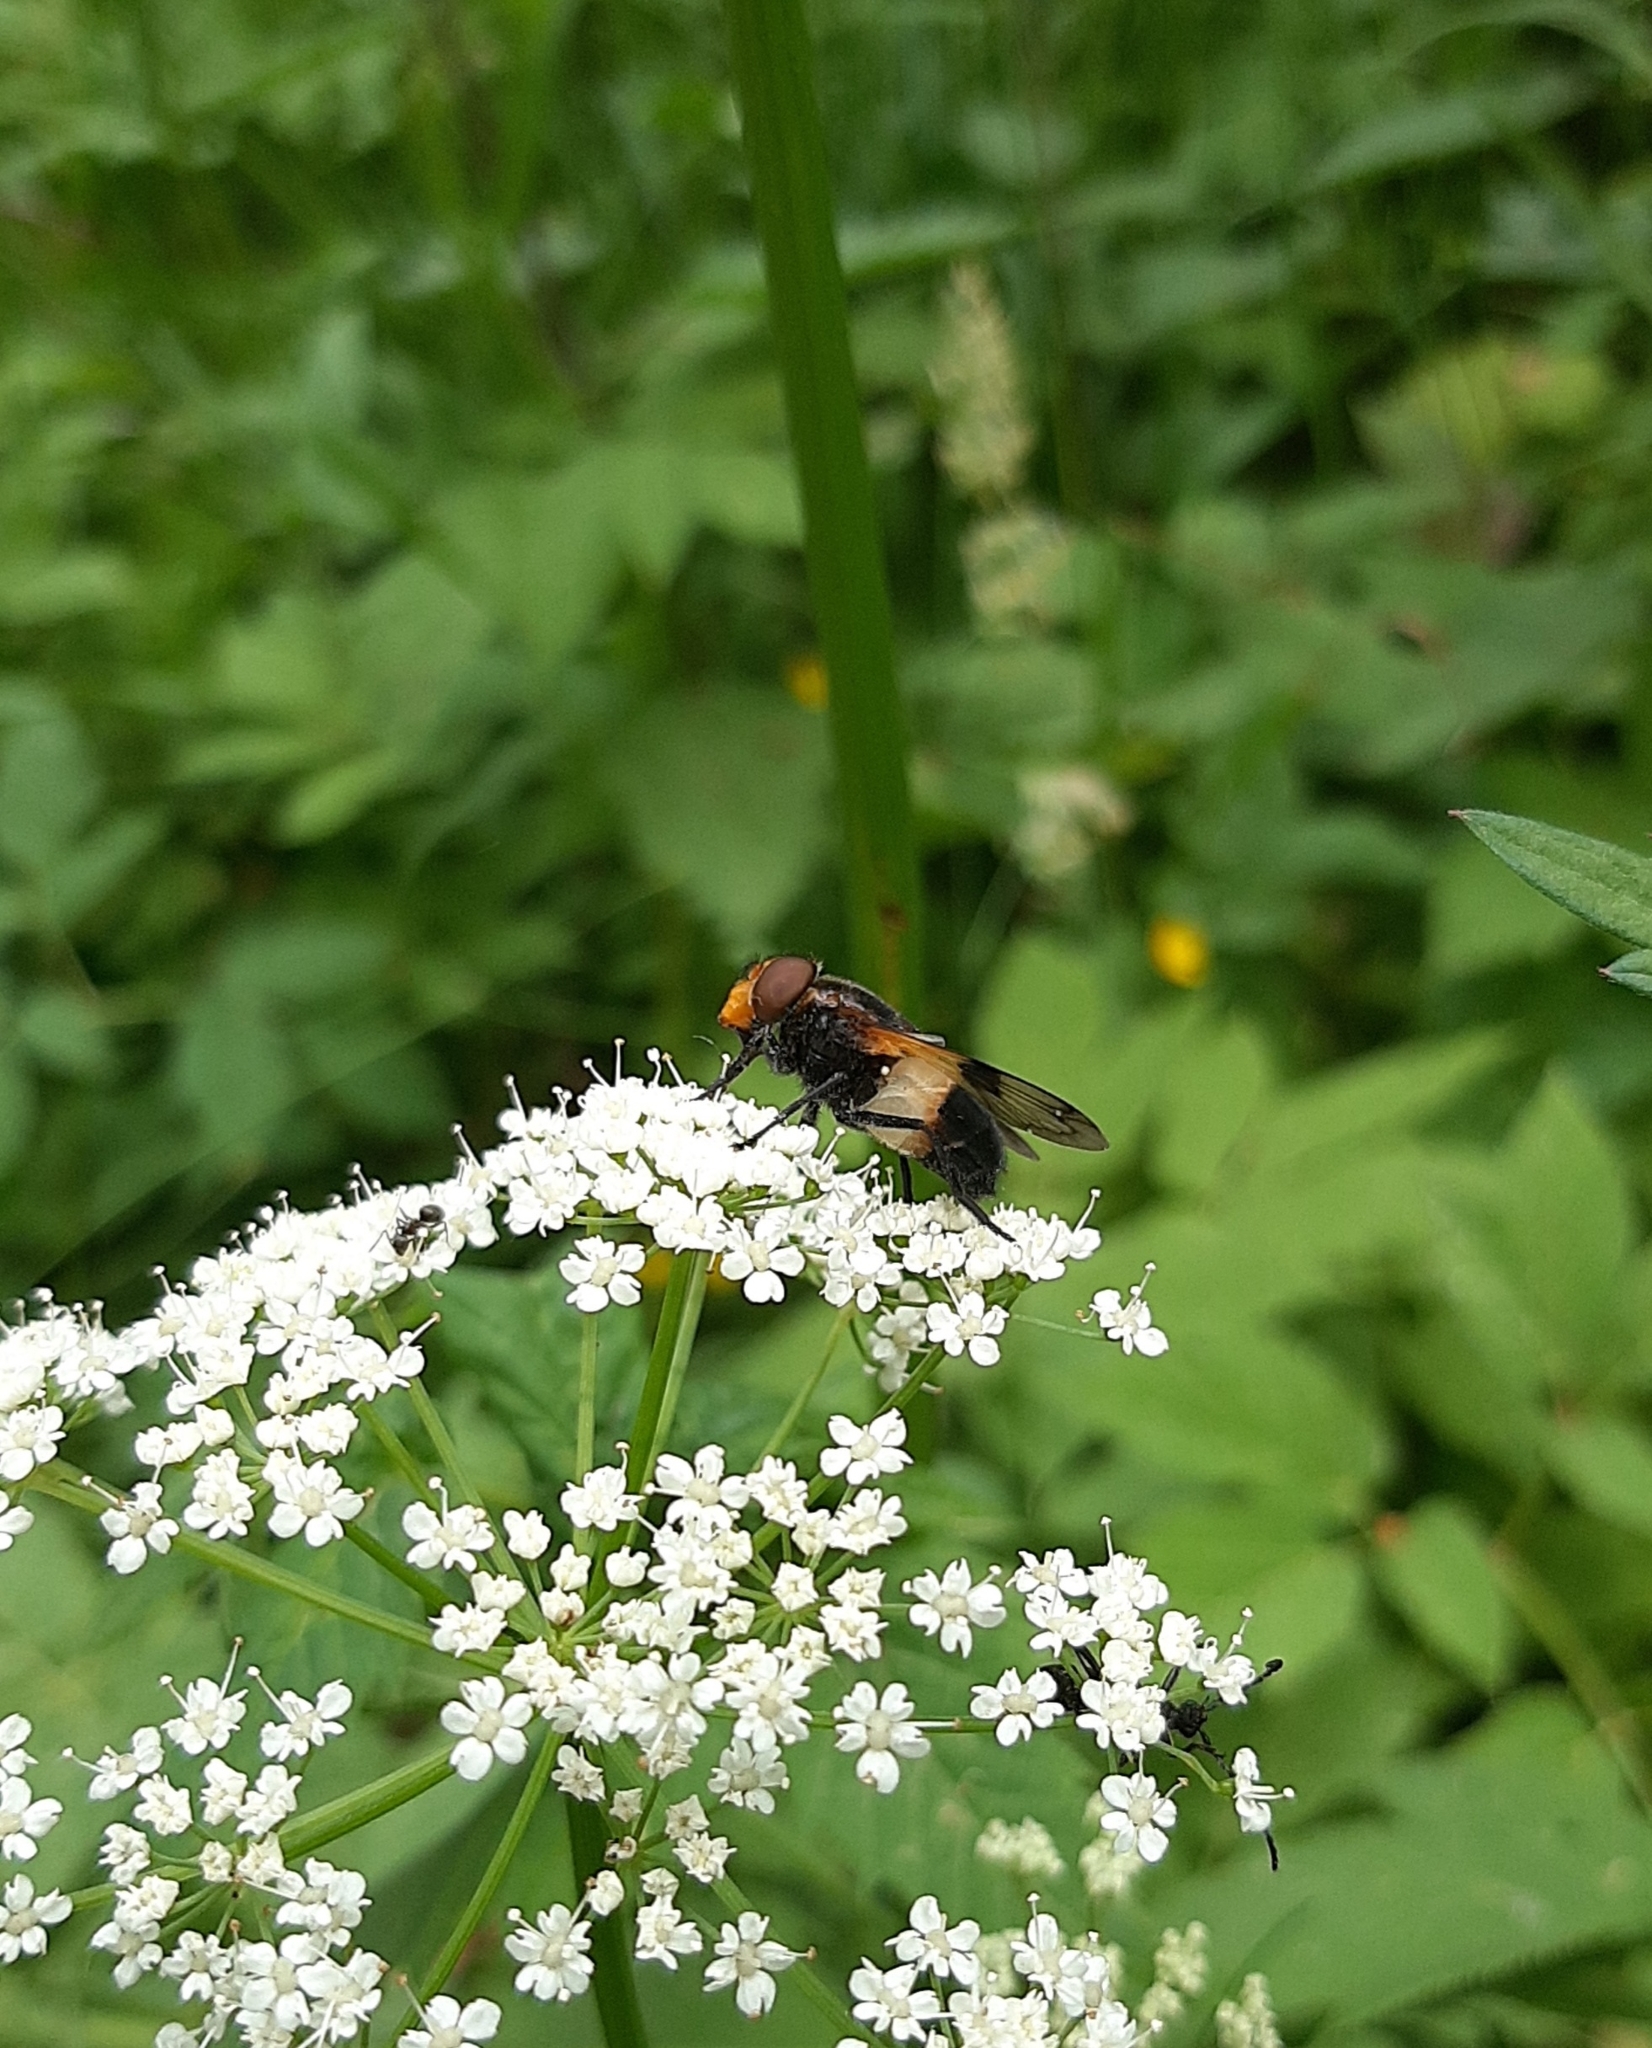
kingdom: Animalia
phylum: Arthropoda
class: Insecta
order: Diptera
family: Syrphidae
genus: Volucella
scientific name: Volucella pellucens
